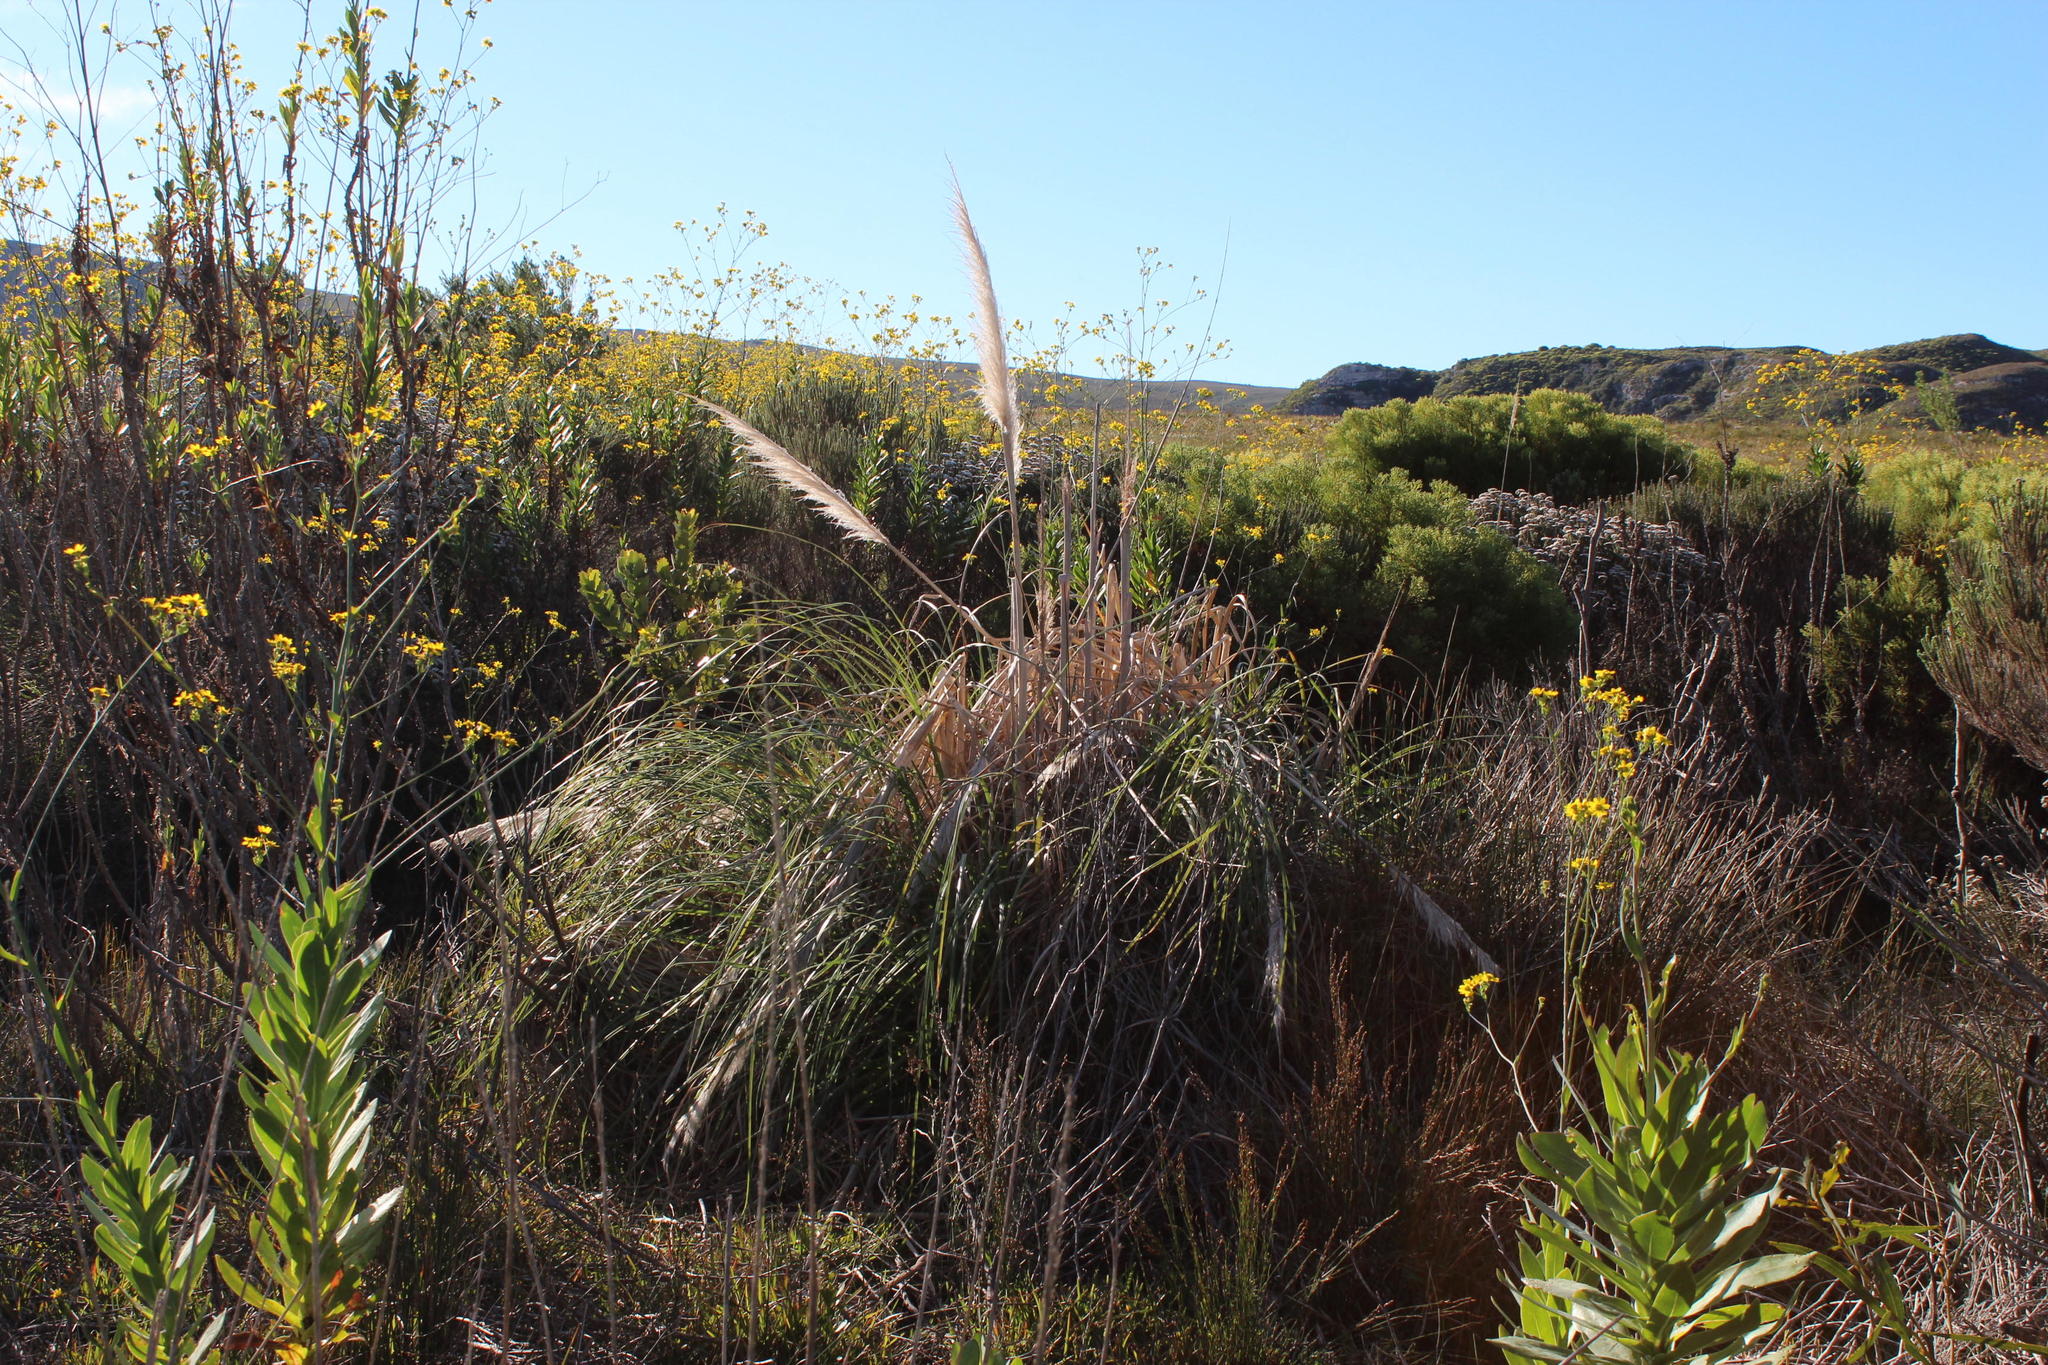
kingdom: Plantae
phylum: Tracheophyta
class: Liliopsida
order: Poales
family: Poaceae
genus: Cortaderia
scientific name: Cortaderia selloana
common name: Uruguayan pampas grass
